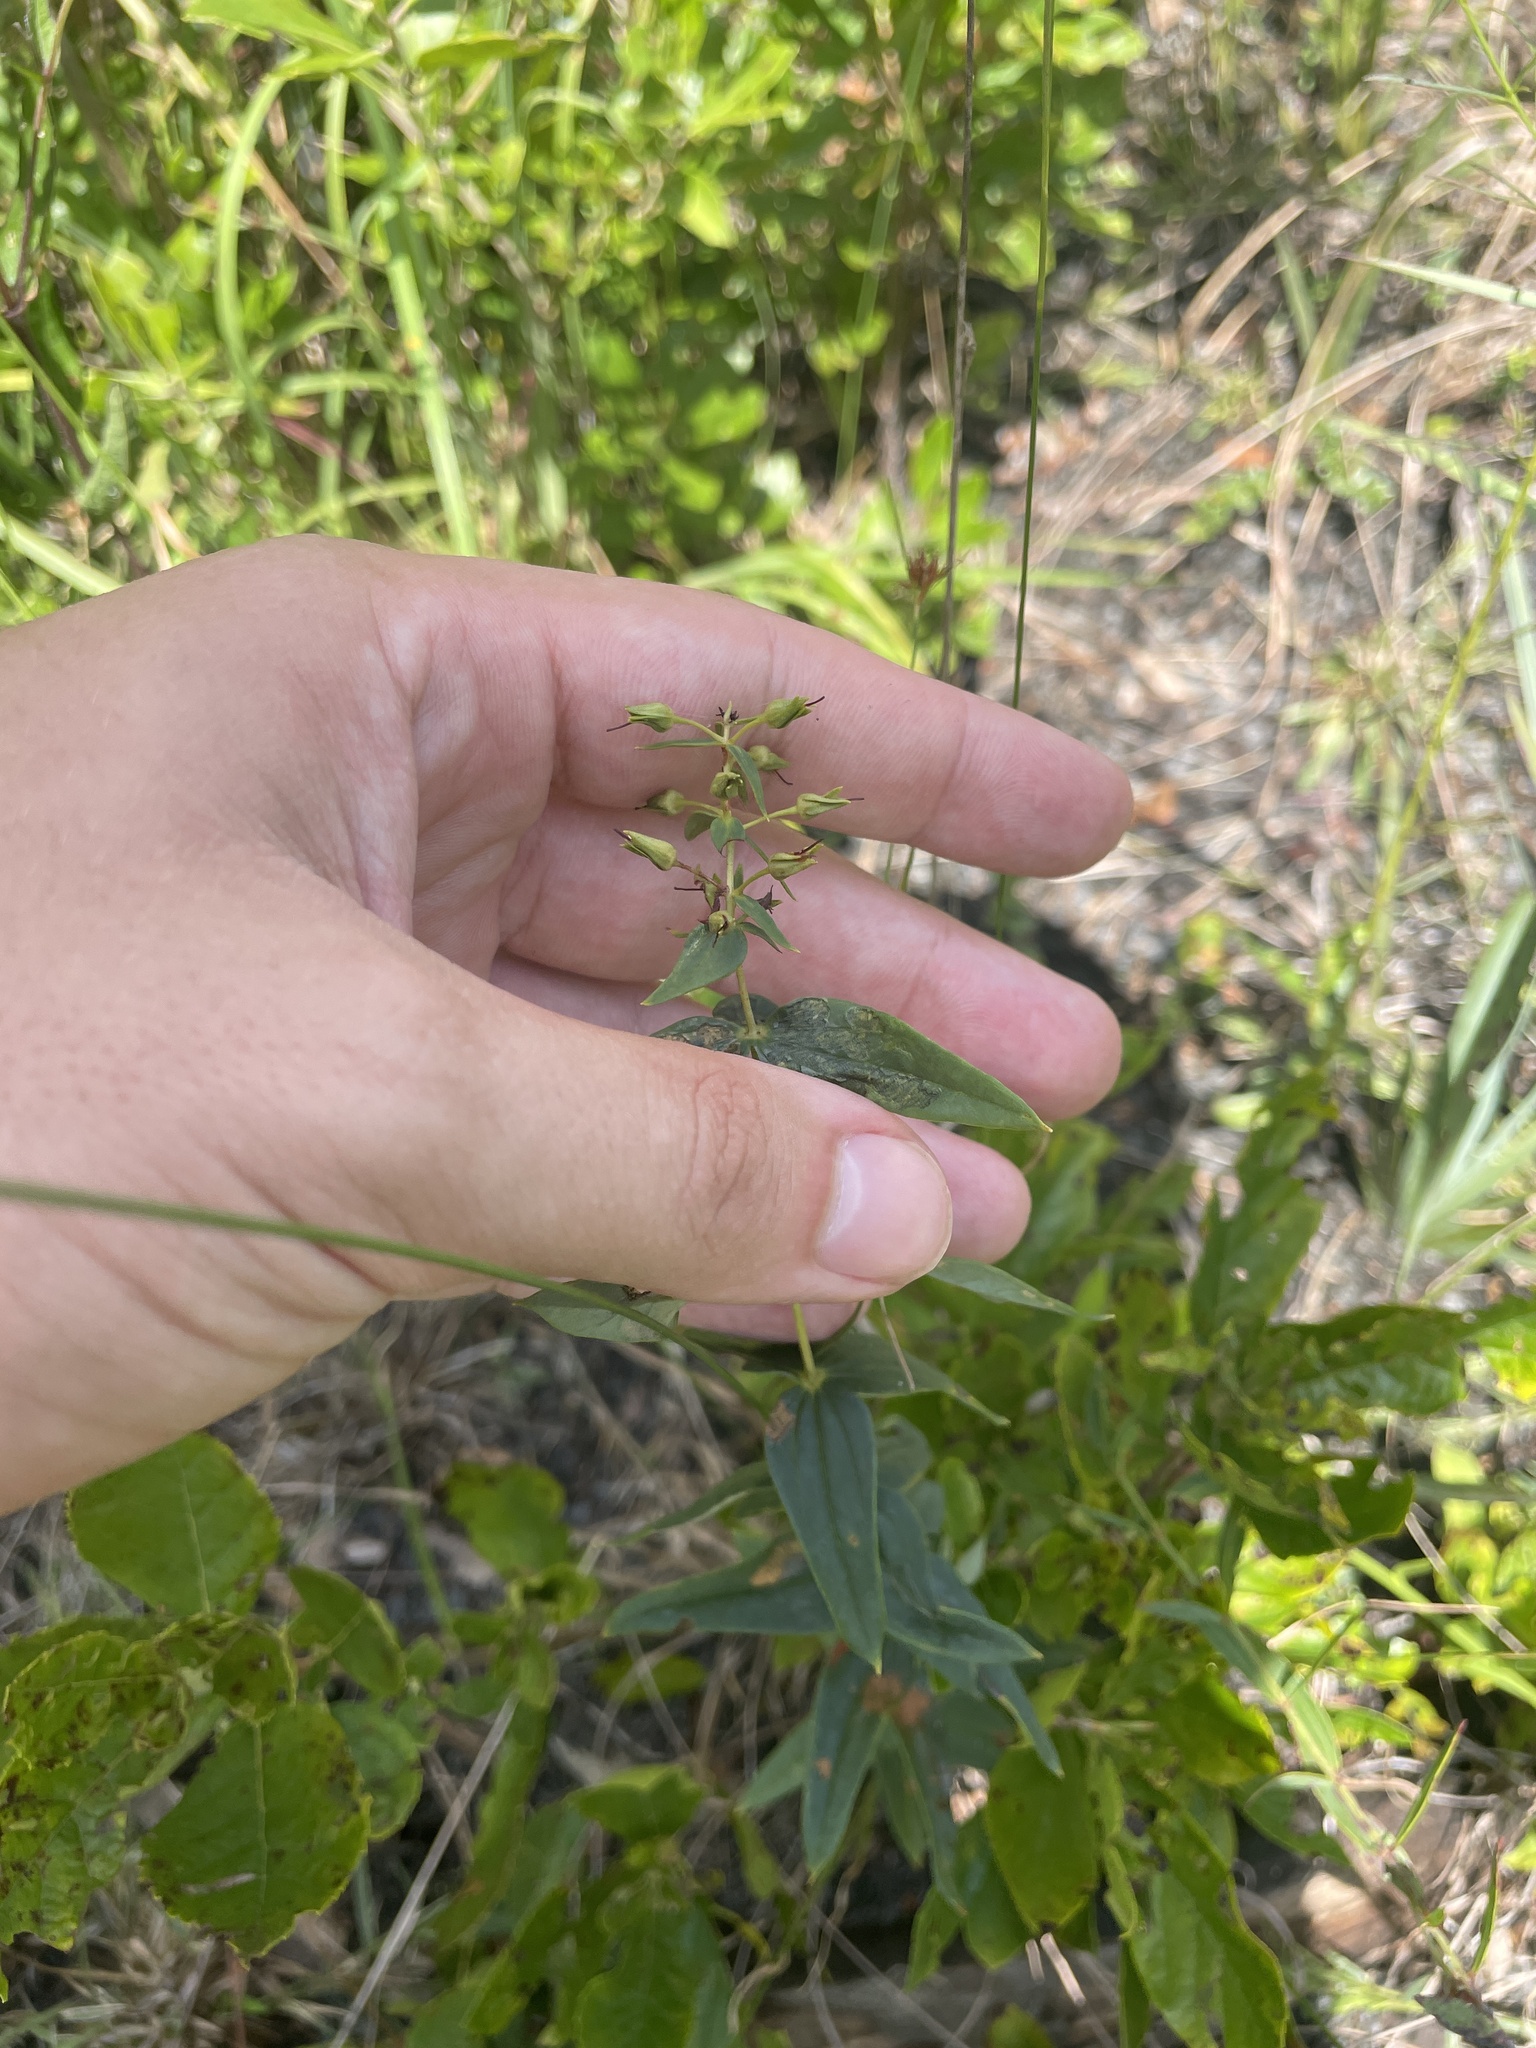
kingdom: Plantae
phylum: Tracheophyta
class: Magnoliopsida
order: Ericales
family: Primulaceae
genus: Lysimachia
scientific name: Lysimachia asperulifolia
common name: Rough-leaf loosestrife
